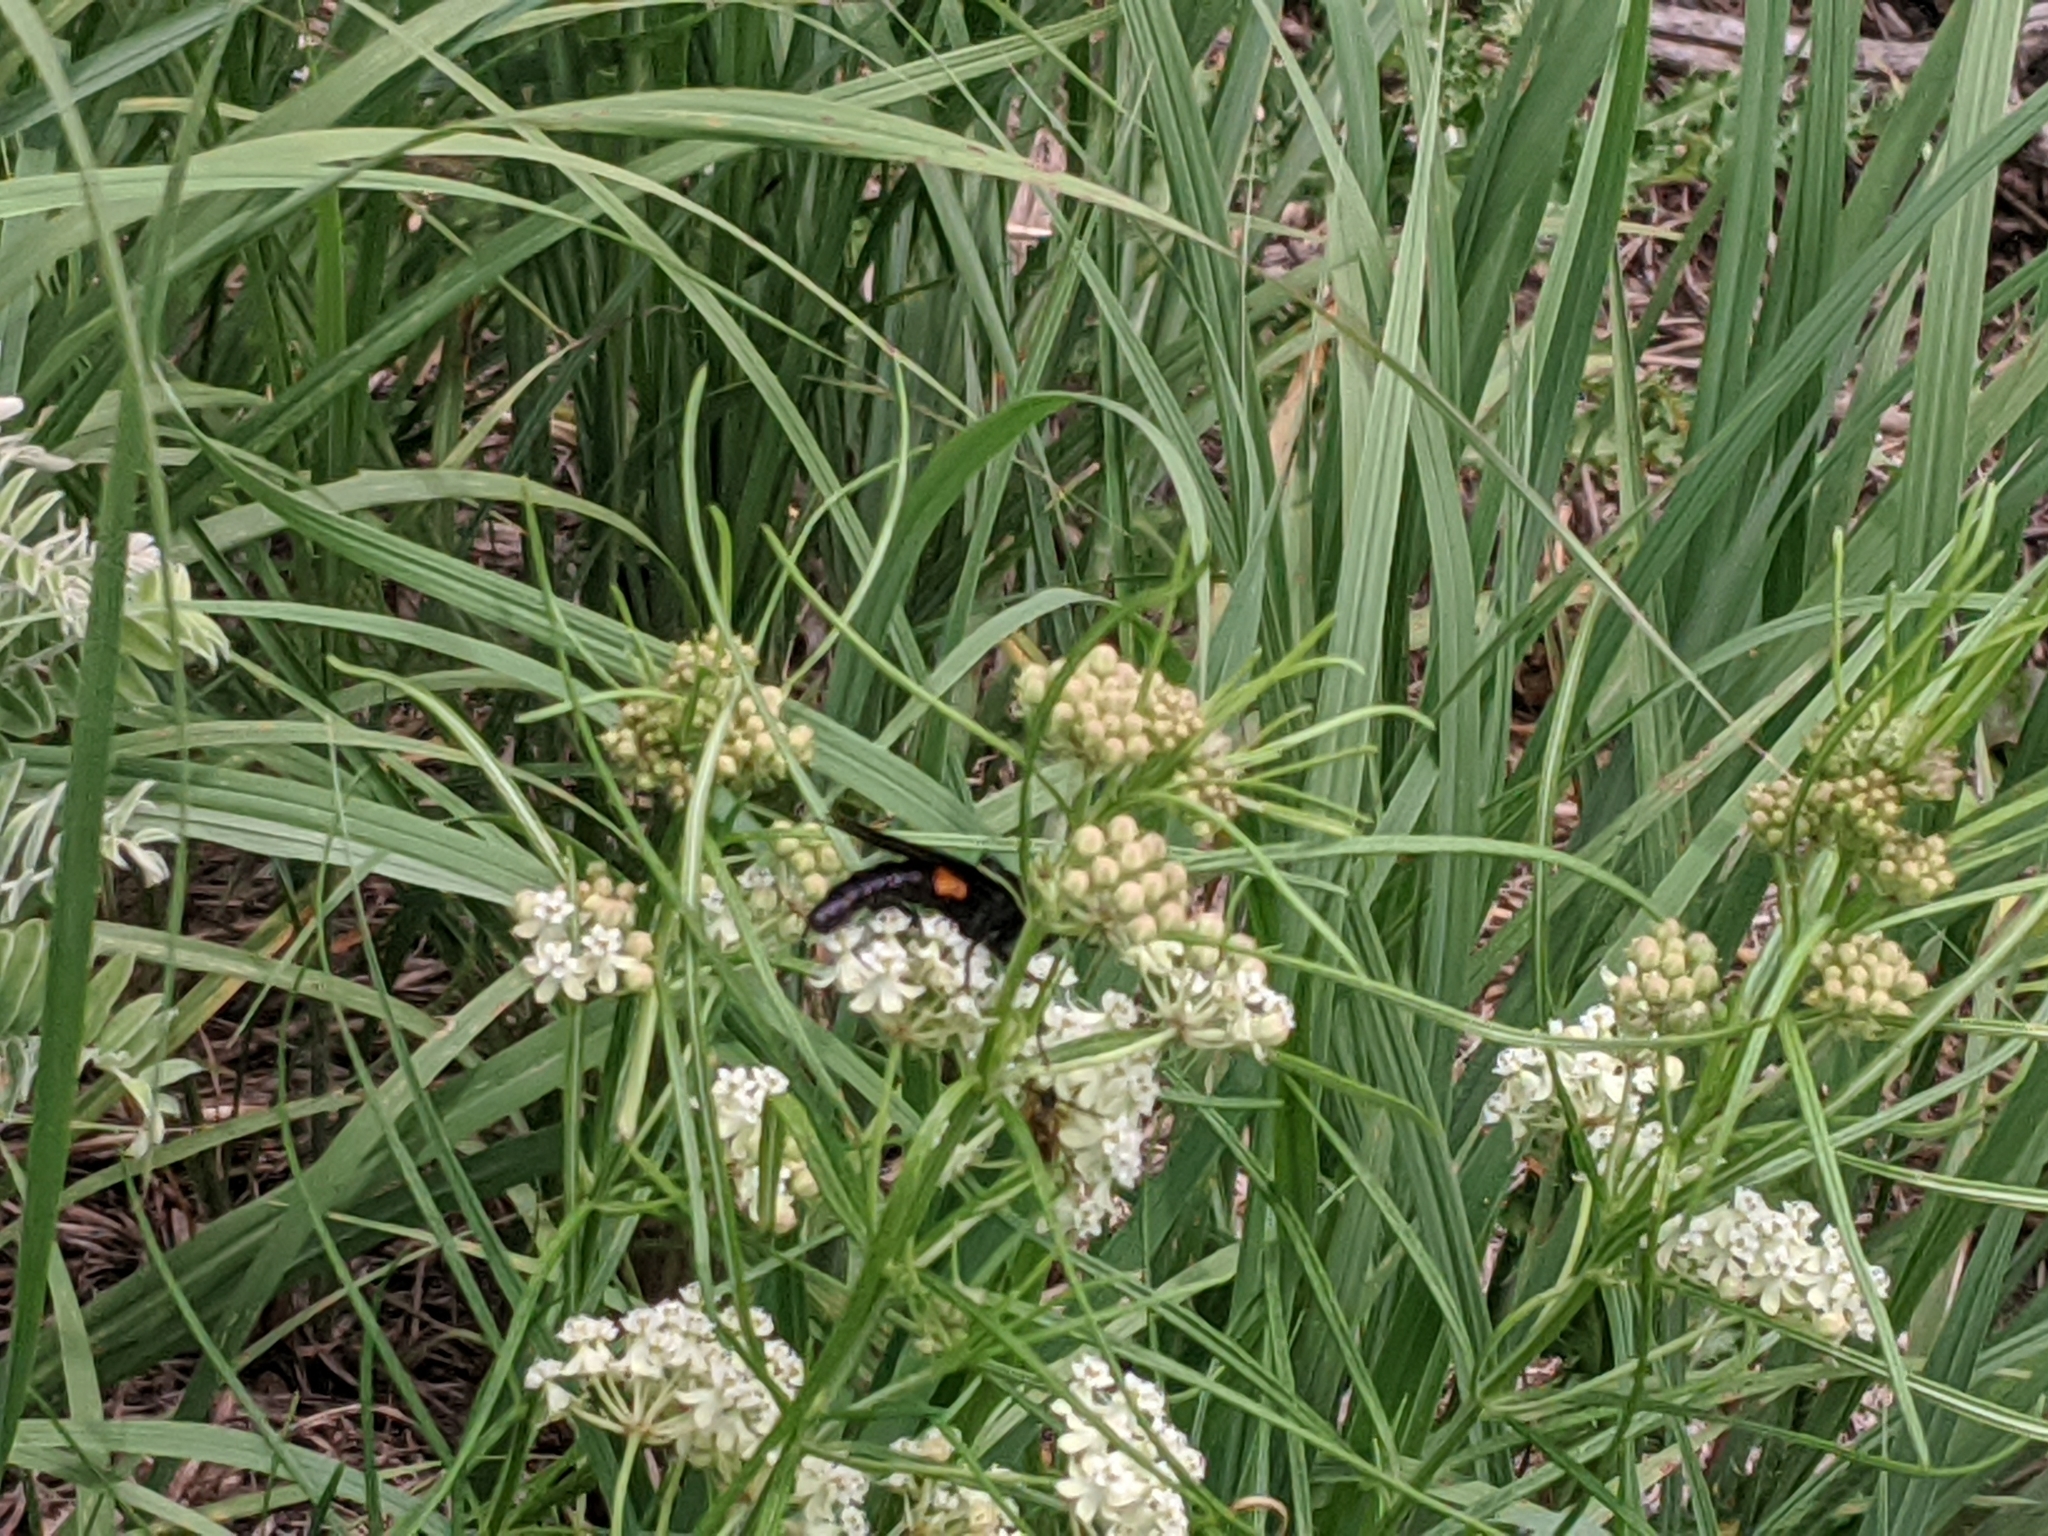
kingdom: Animalia
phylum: Arthropoda
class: Insecta
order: Diptera
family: Mydidae
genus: Mydas
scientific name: Mydas clavatus
